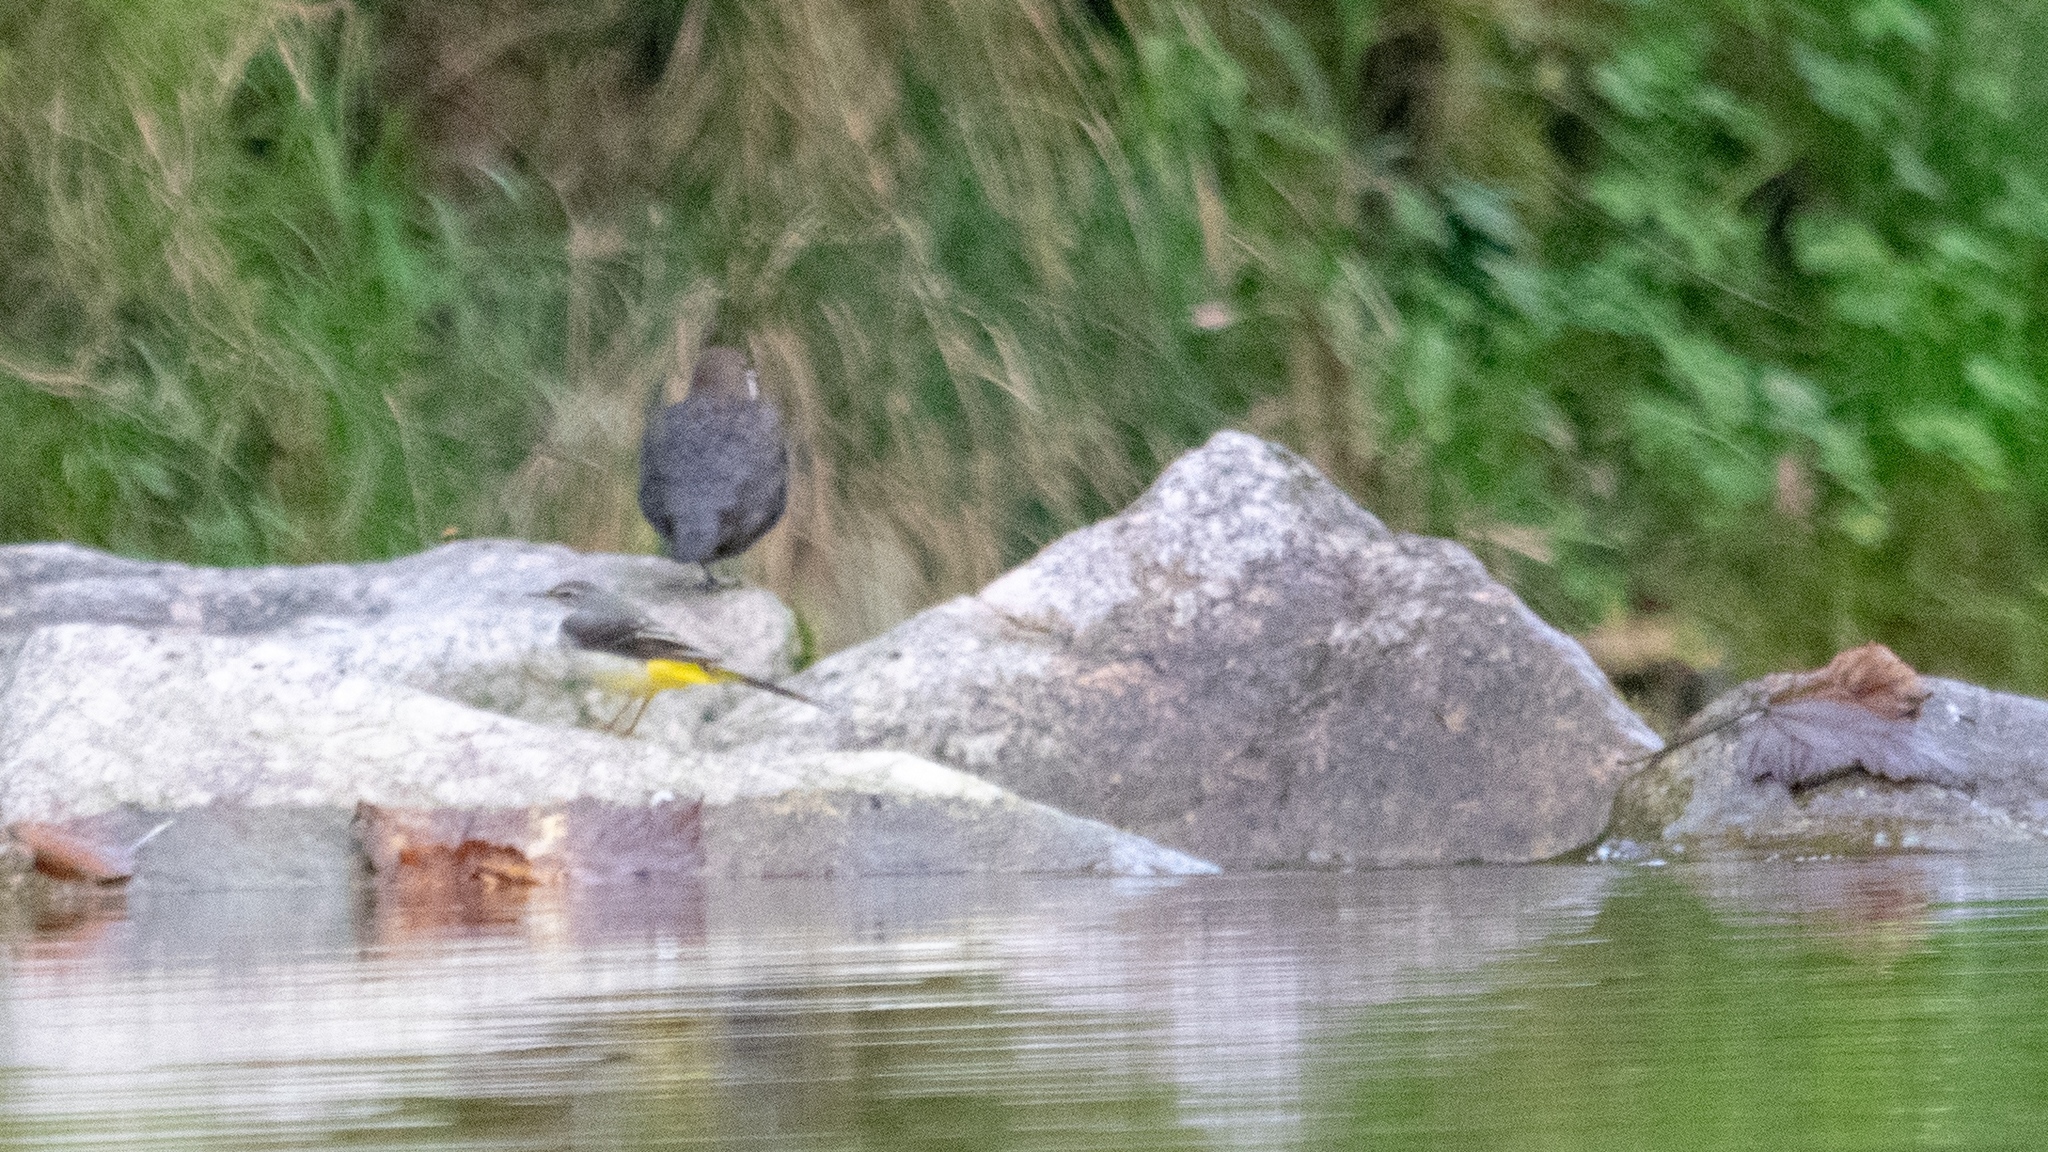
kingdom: Animalia
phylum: Chordata
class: Aves
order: Passeriformes
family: Cinclidae
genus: Cinclus
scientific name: Cinclus cinclus
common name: White-throated dipper
